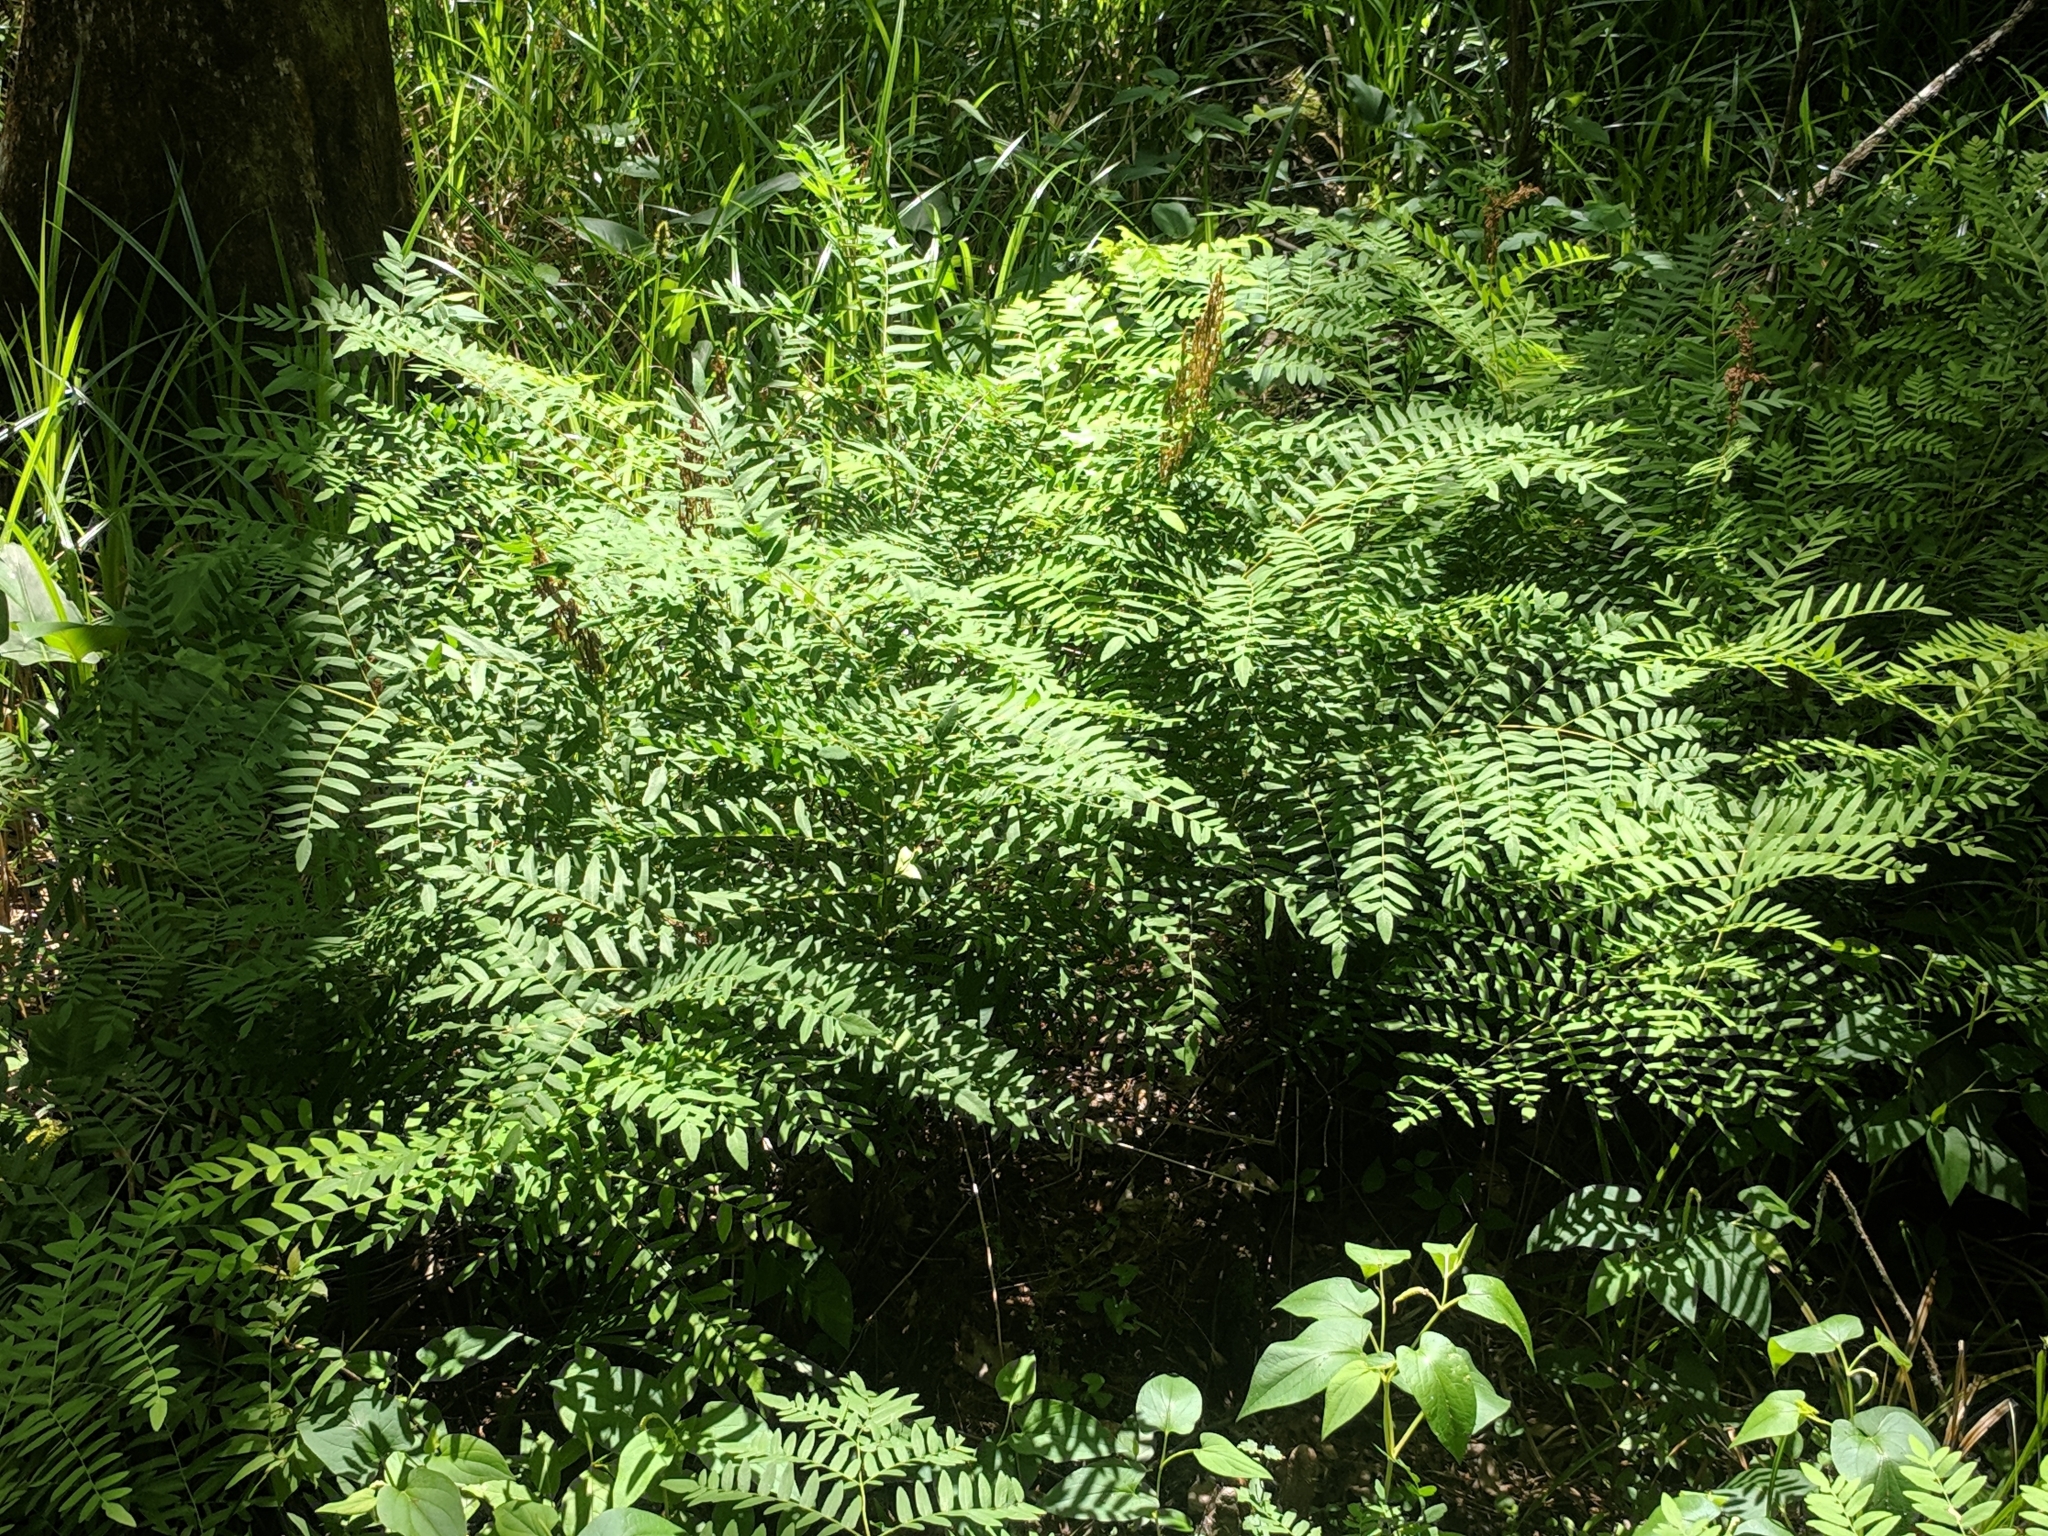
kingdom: Plantae
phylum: Tracheophyta
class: Polypodiopsida
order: Osmundales
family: Osmundaceae
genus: Osmunda
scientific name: Osmunda spectabilis
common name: American royal fern
